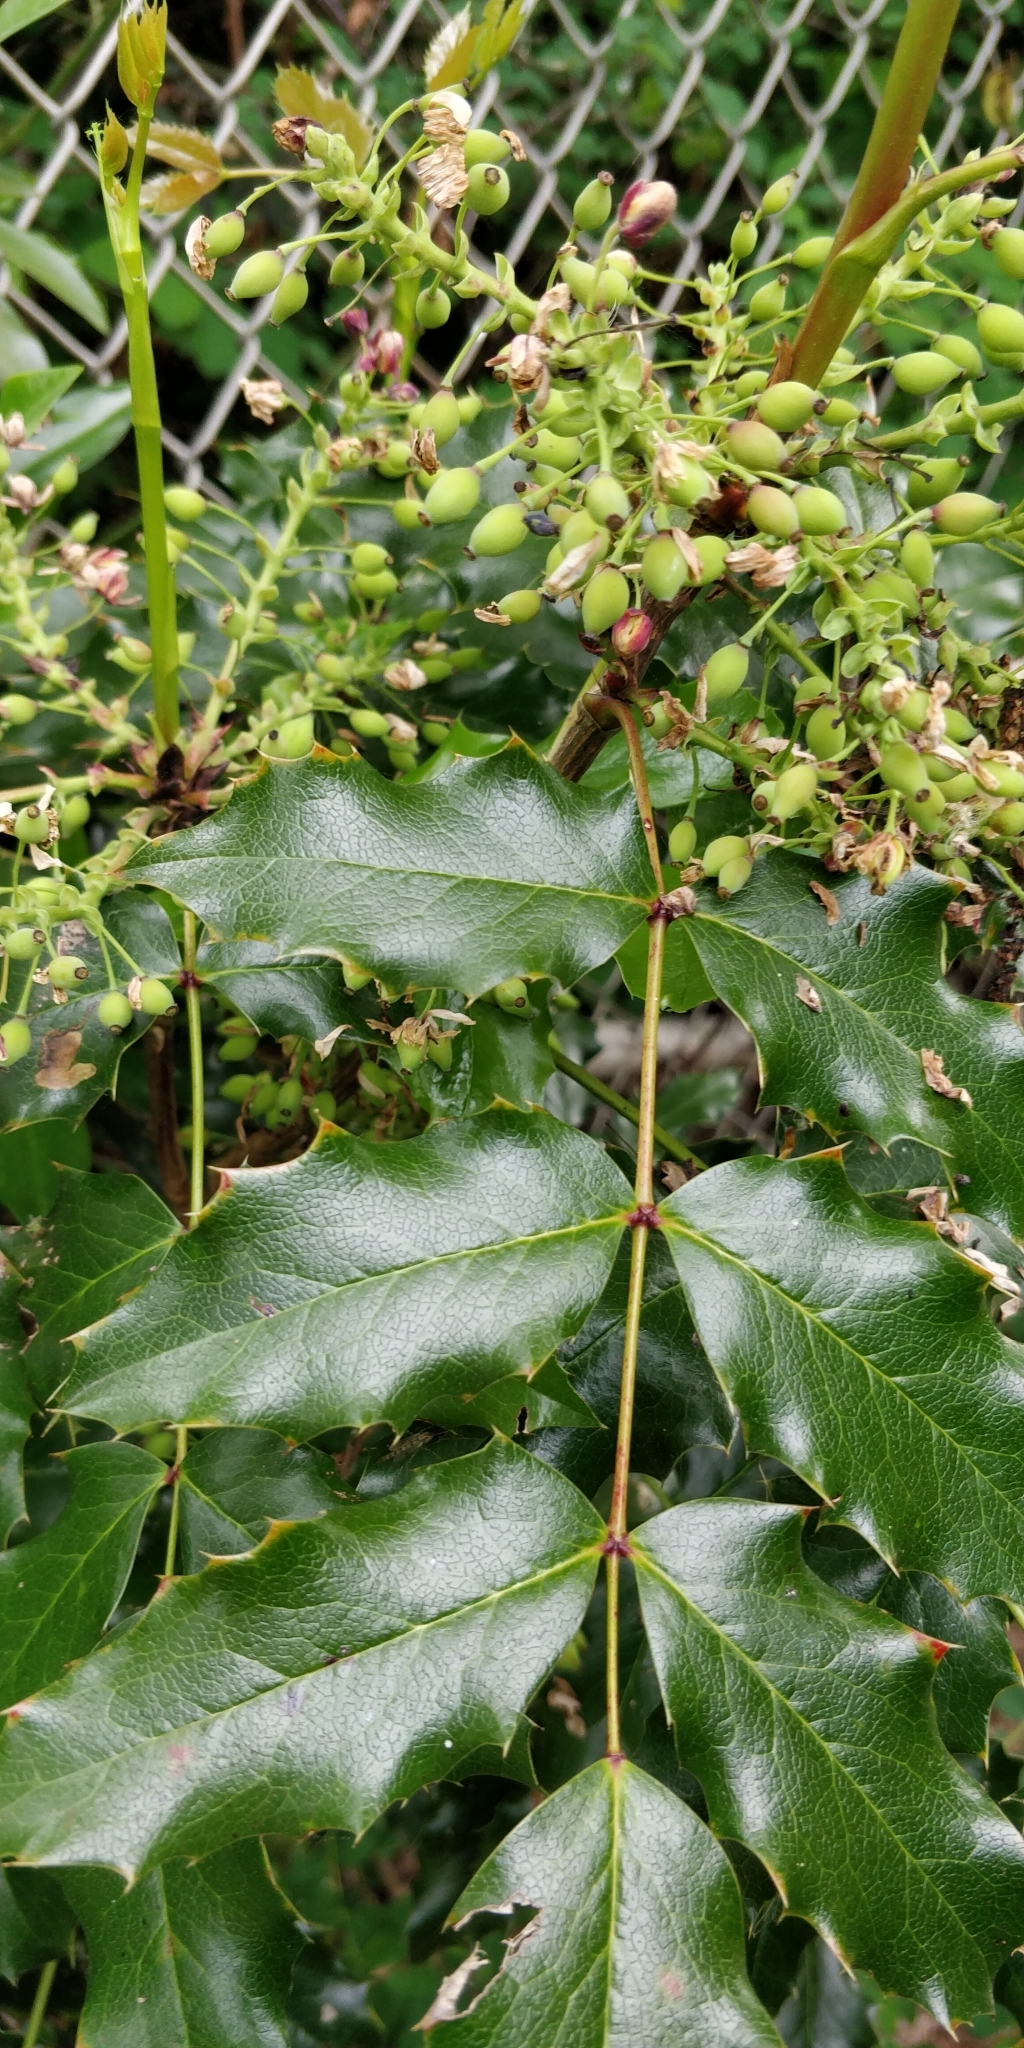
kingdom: Plantae
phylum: Tracheophyta
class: Magnoliopsida
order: Ranunculales
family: Berberidaceae
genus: Mahonia
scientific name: Mahonia aquifolium
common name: Oregon-grape
